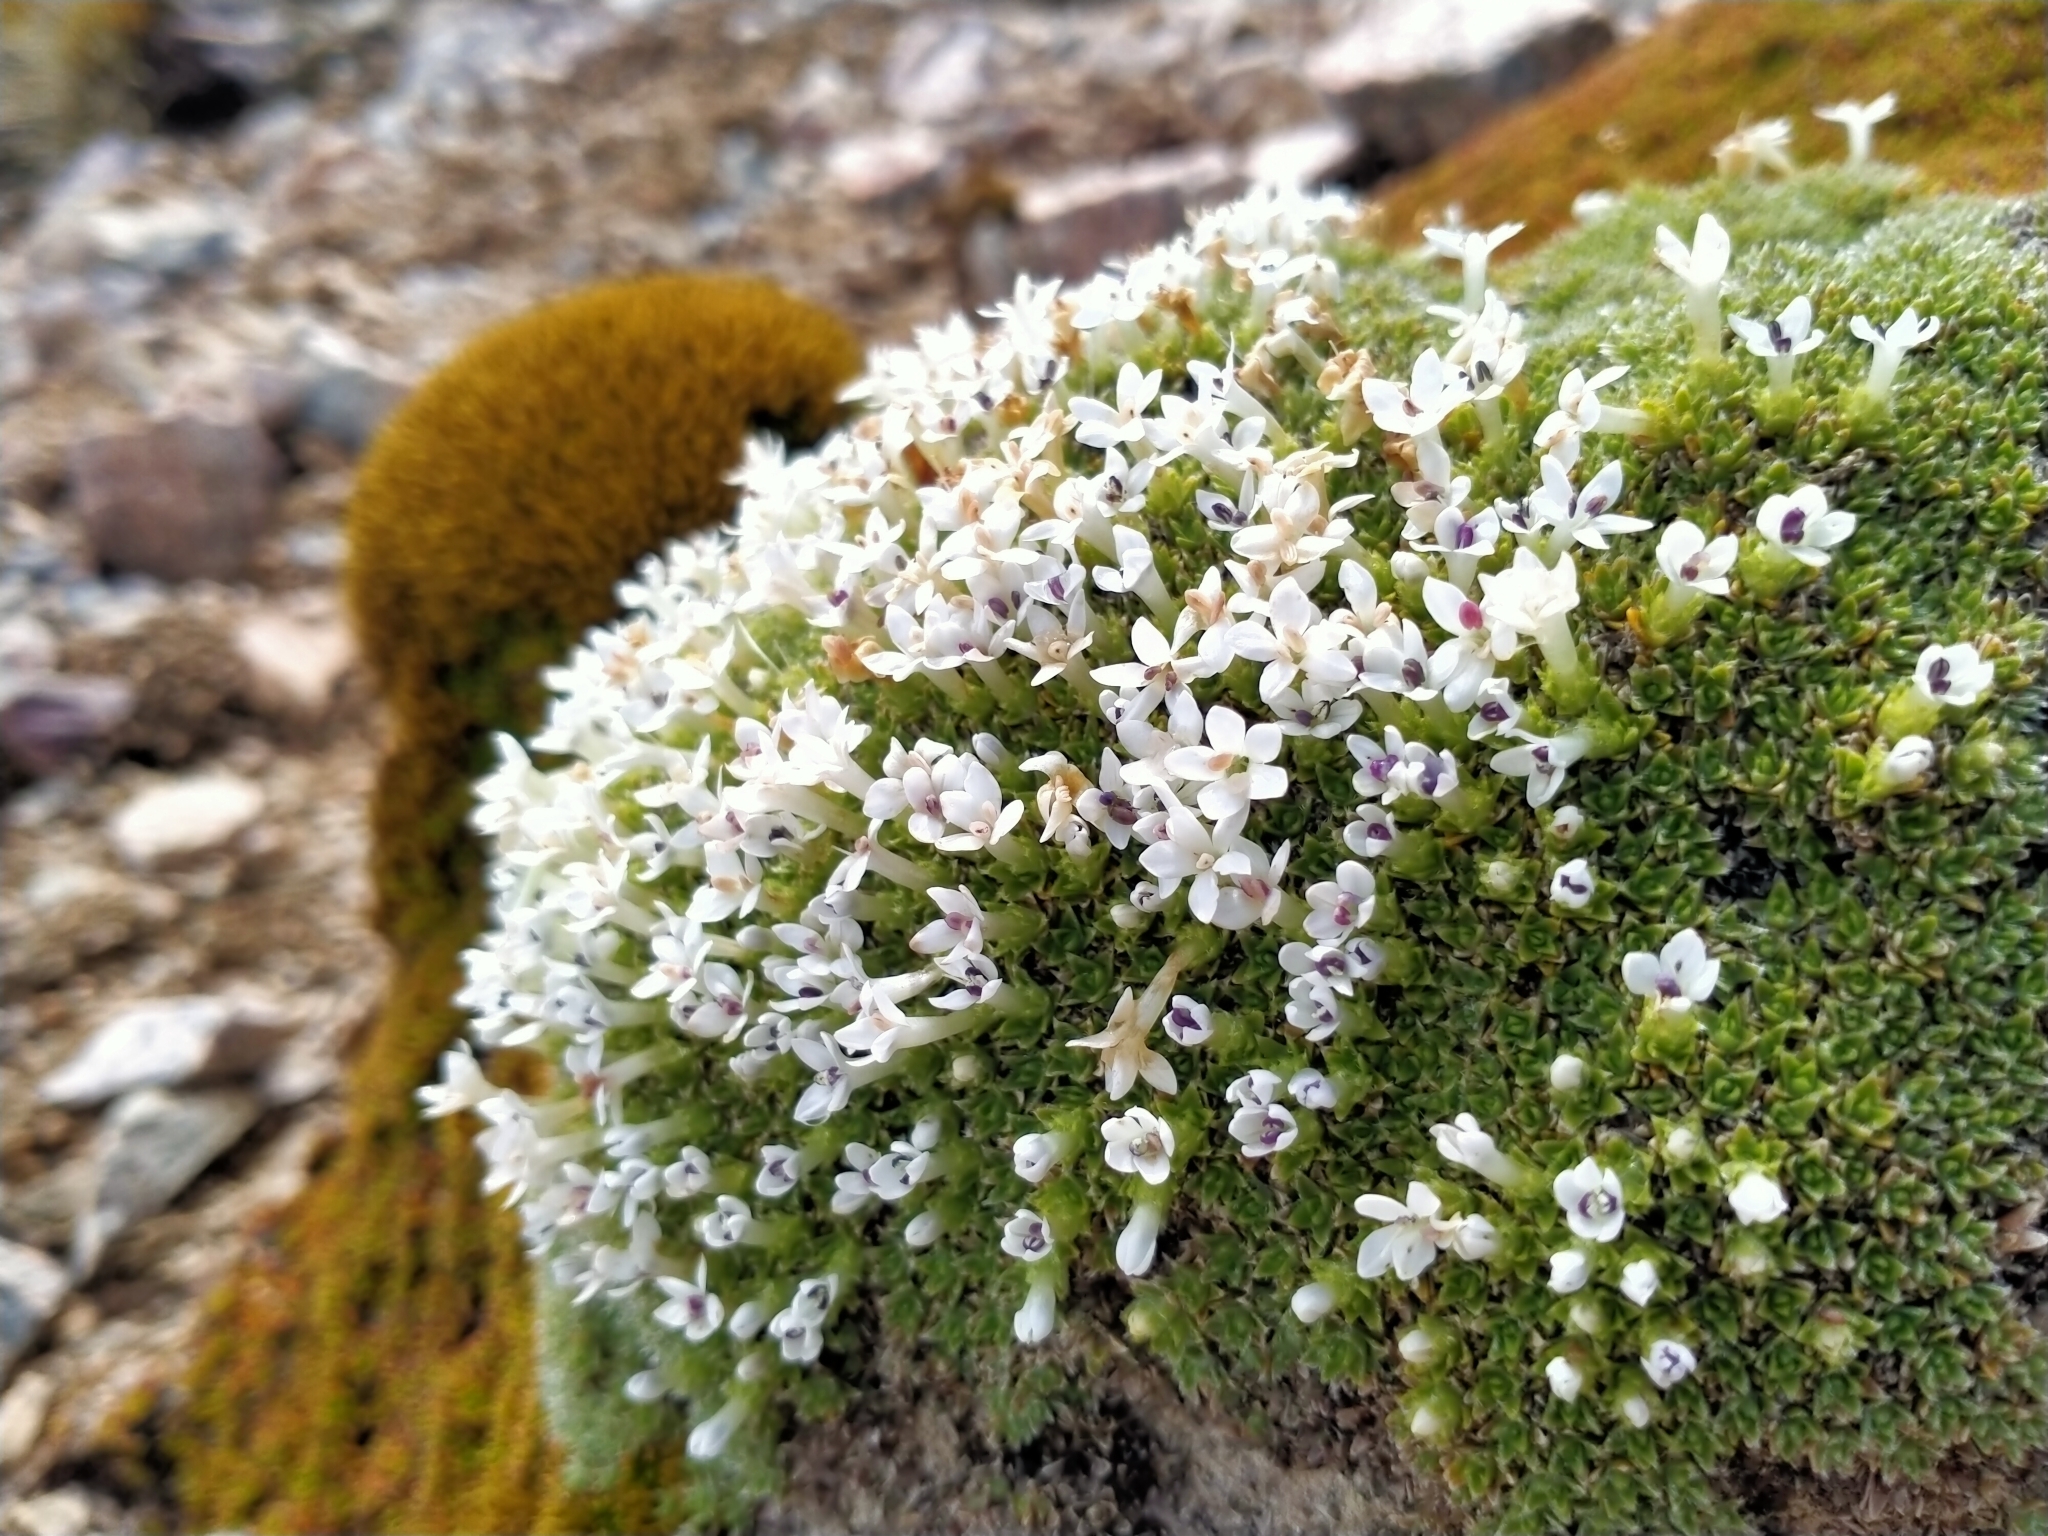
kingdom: Plantae
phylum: Tracheophyta
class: Magnoliopsida
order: Lamiales
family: Plantaginaceae
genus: Veronica
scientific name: Veronica ciliolata
